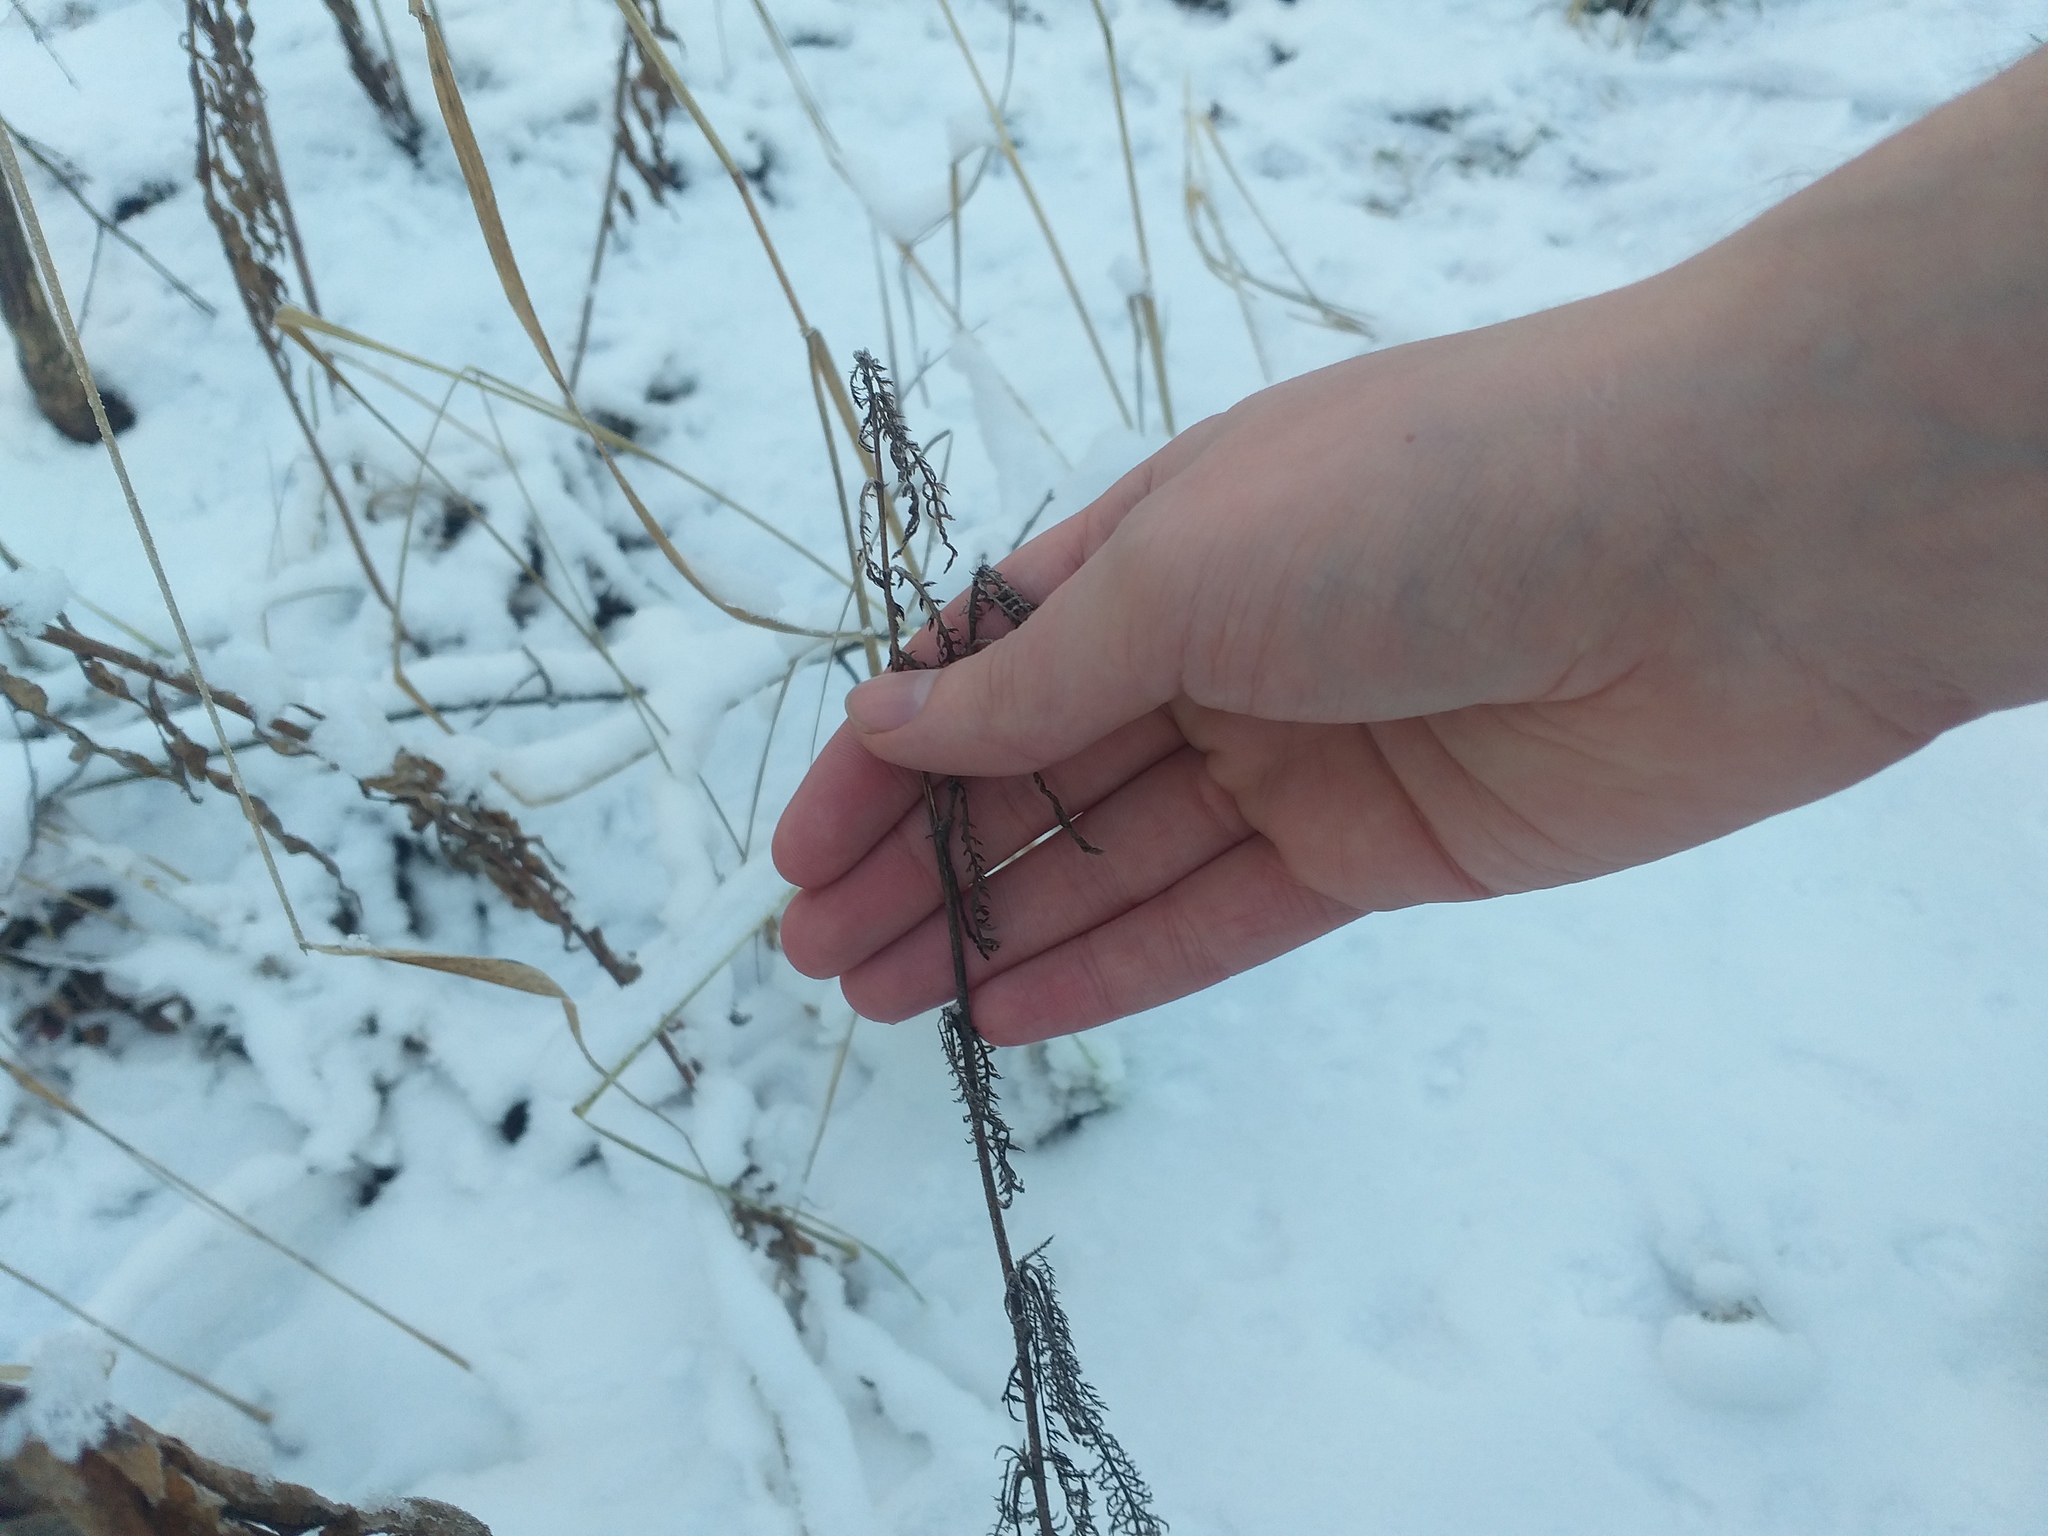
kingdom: Plantae
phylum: Tracheophyta
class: Magnoliopsida
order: Asterales
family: Asteraceae
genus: Achillea
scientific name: Achillea millefolium
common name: Yarrow
